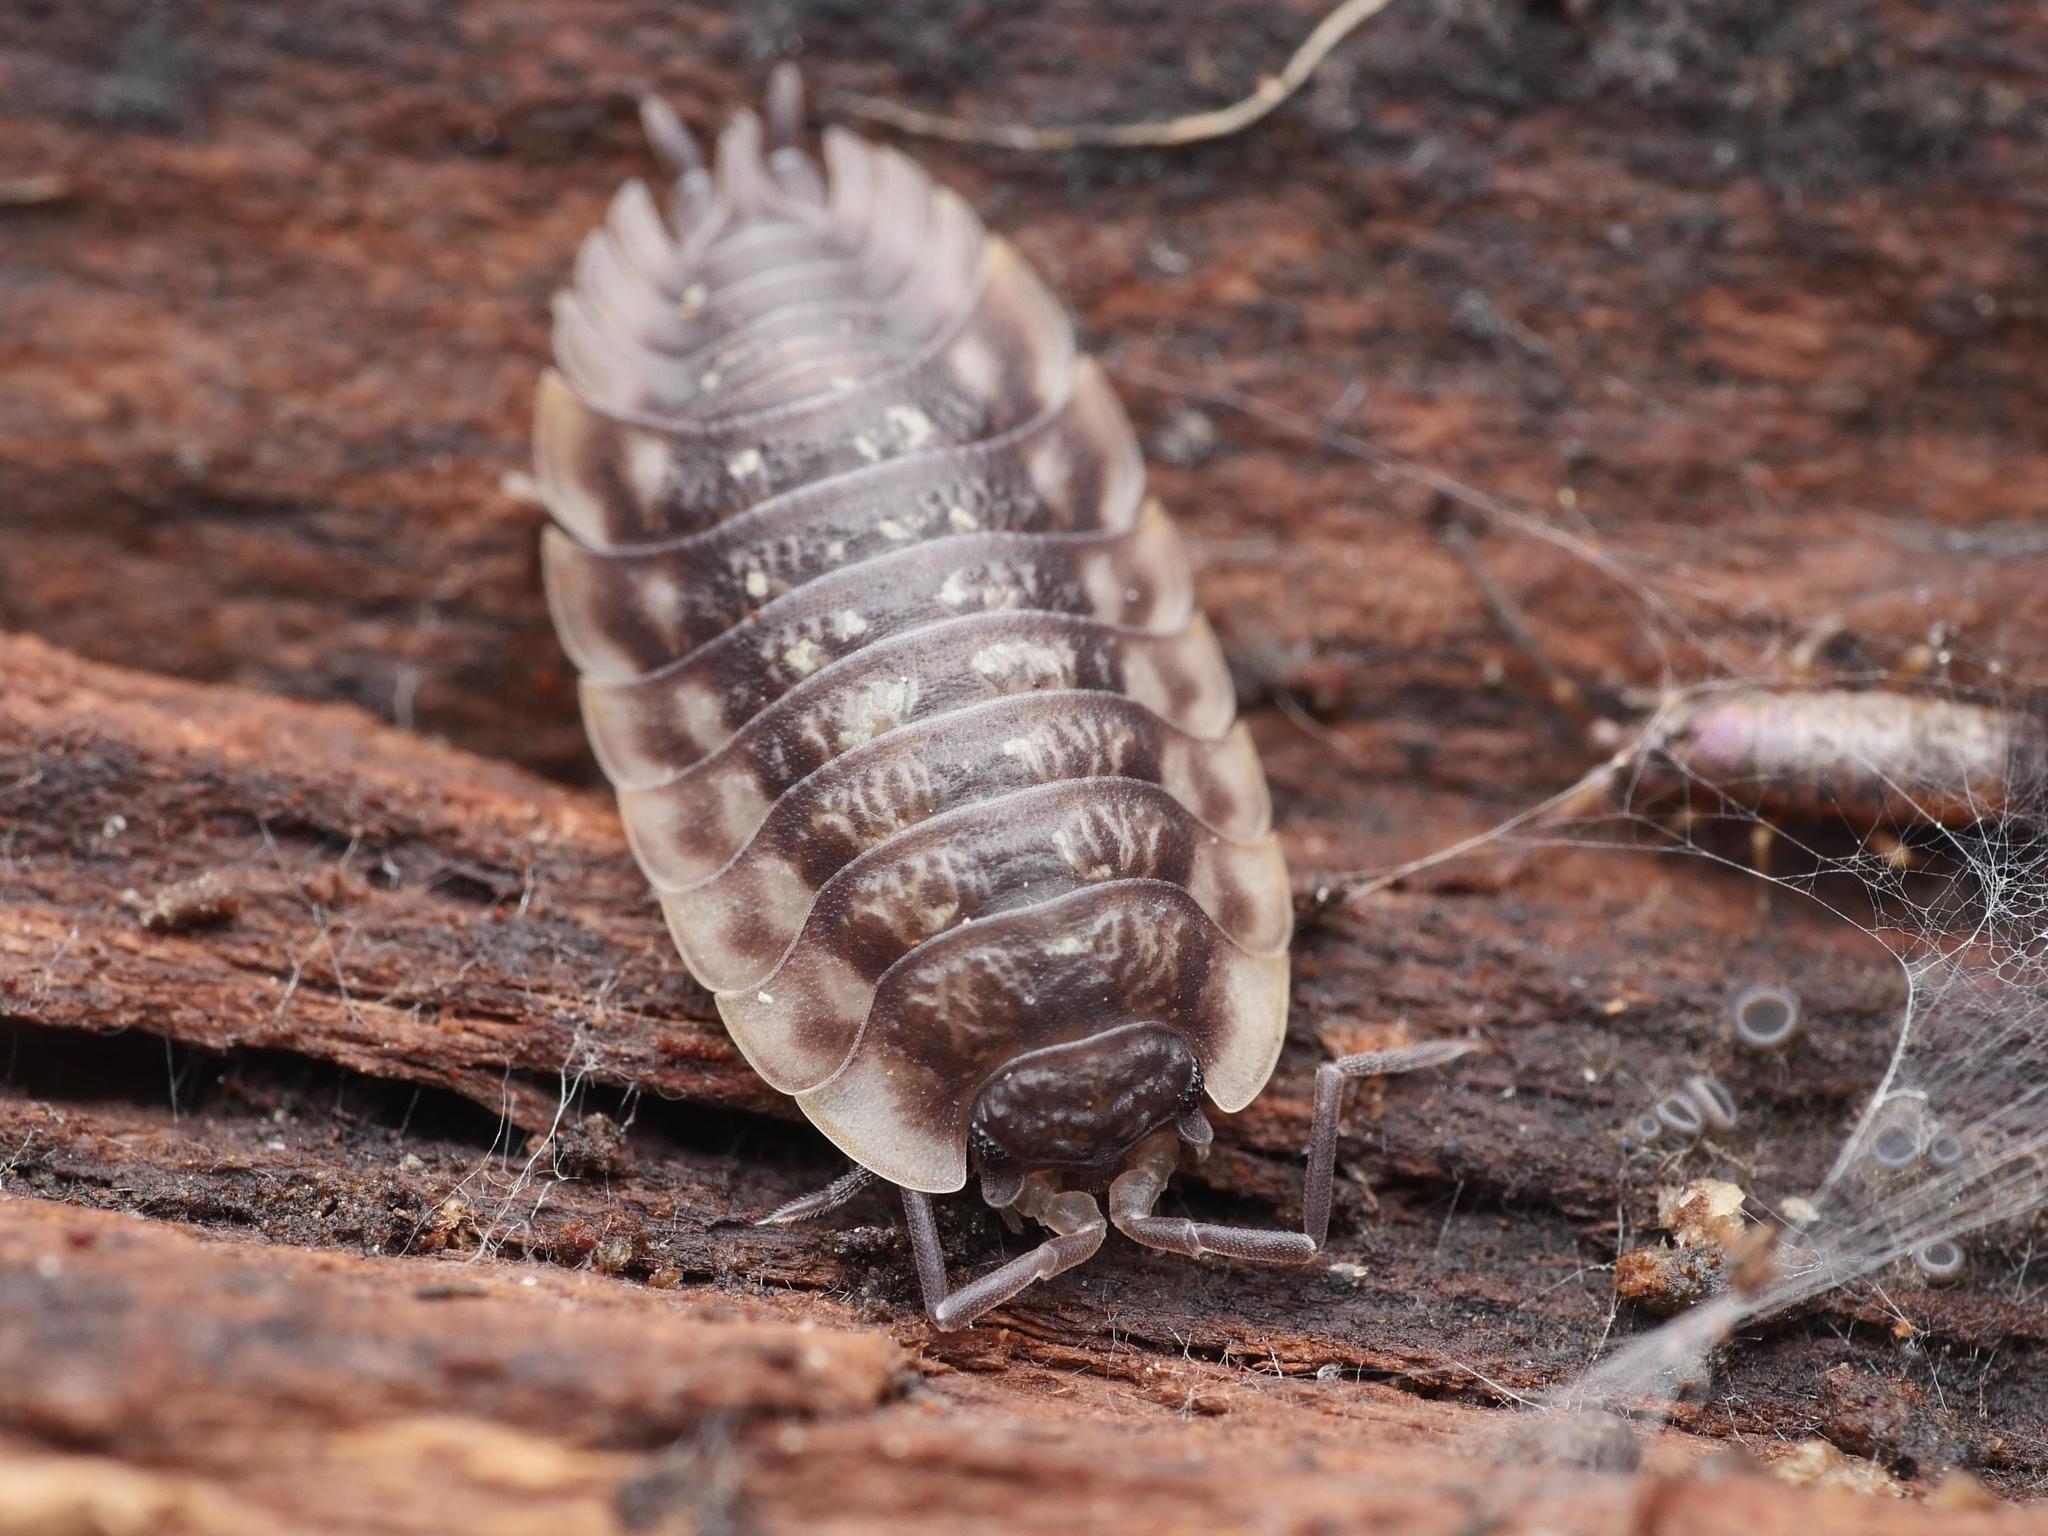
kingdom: Animalia
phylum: Arthropoda
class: Malacostraca
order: Isopoda
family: Oniscidae
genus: Oniscus
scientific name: Oniscus asellus
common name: Common shiny woodlouse
